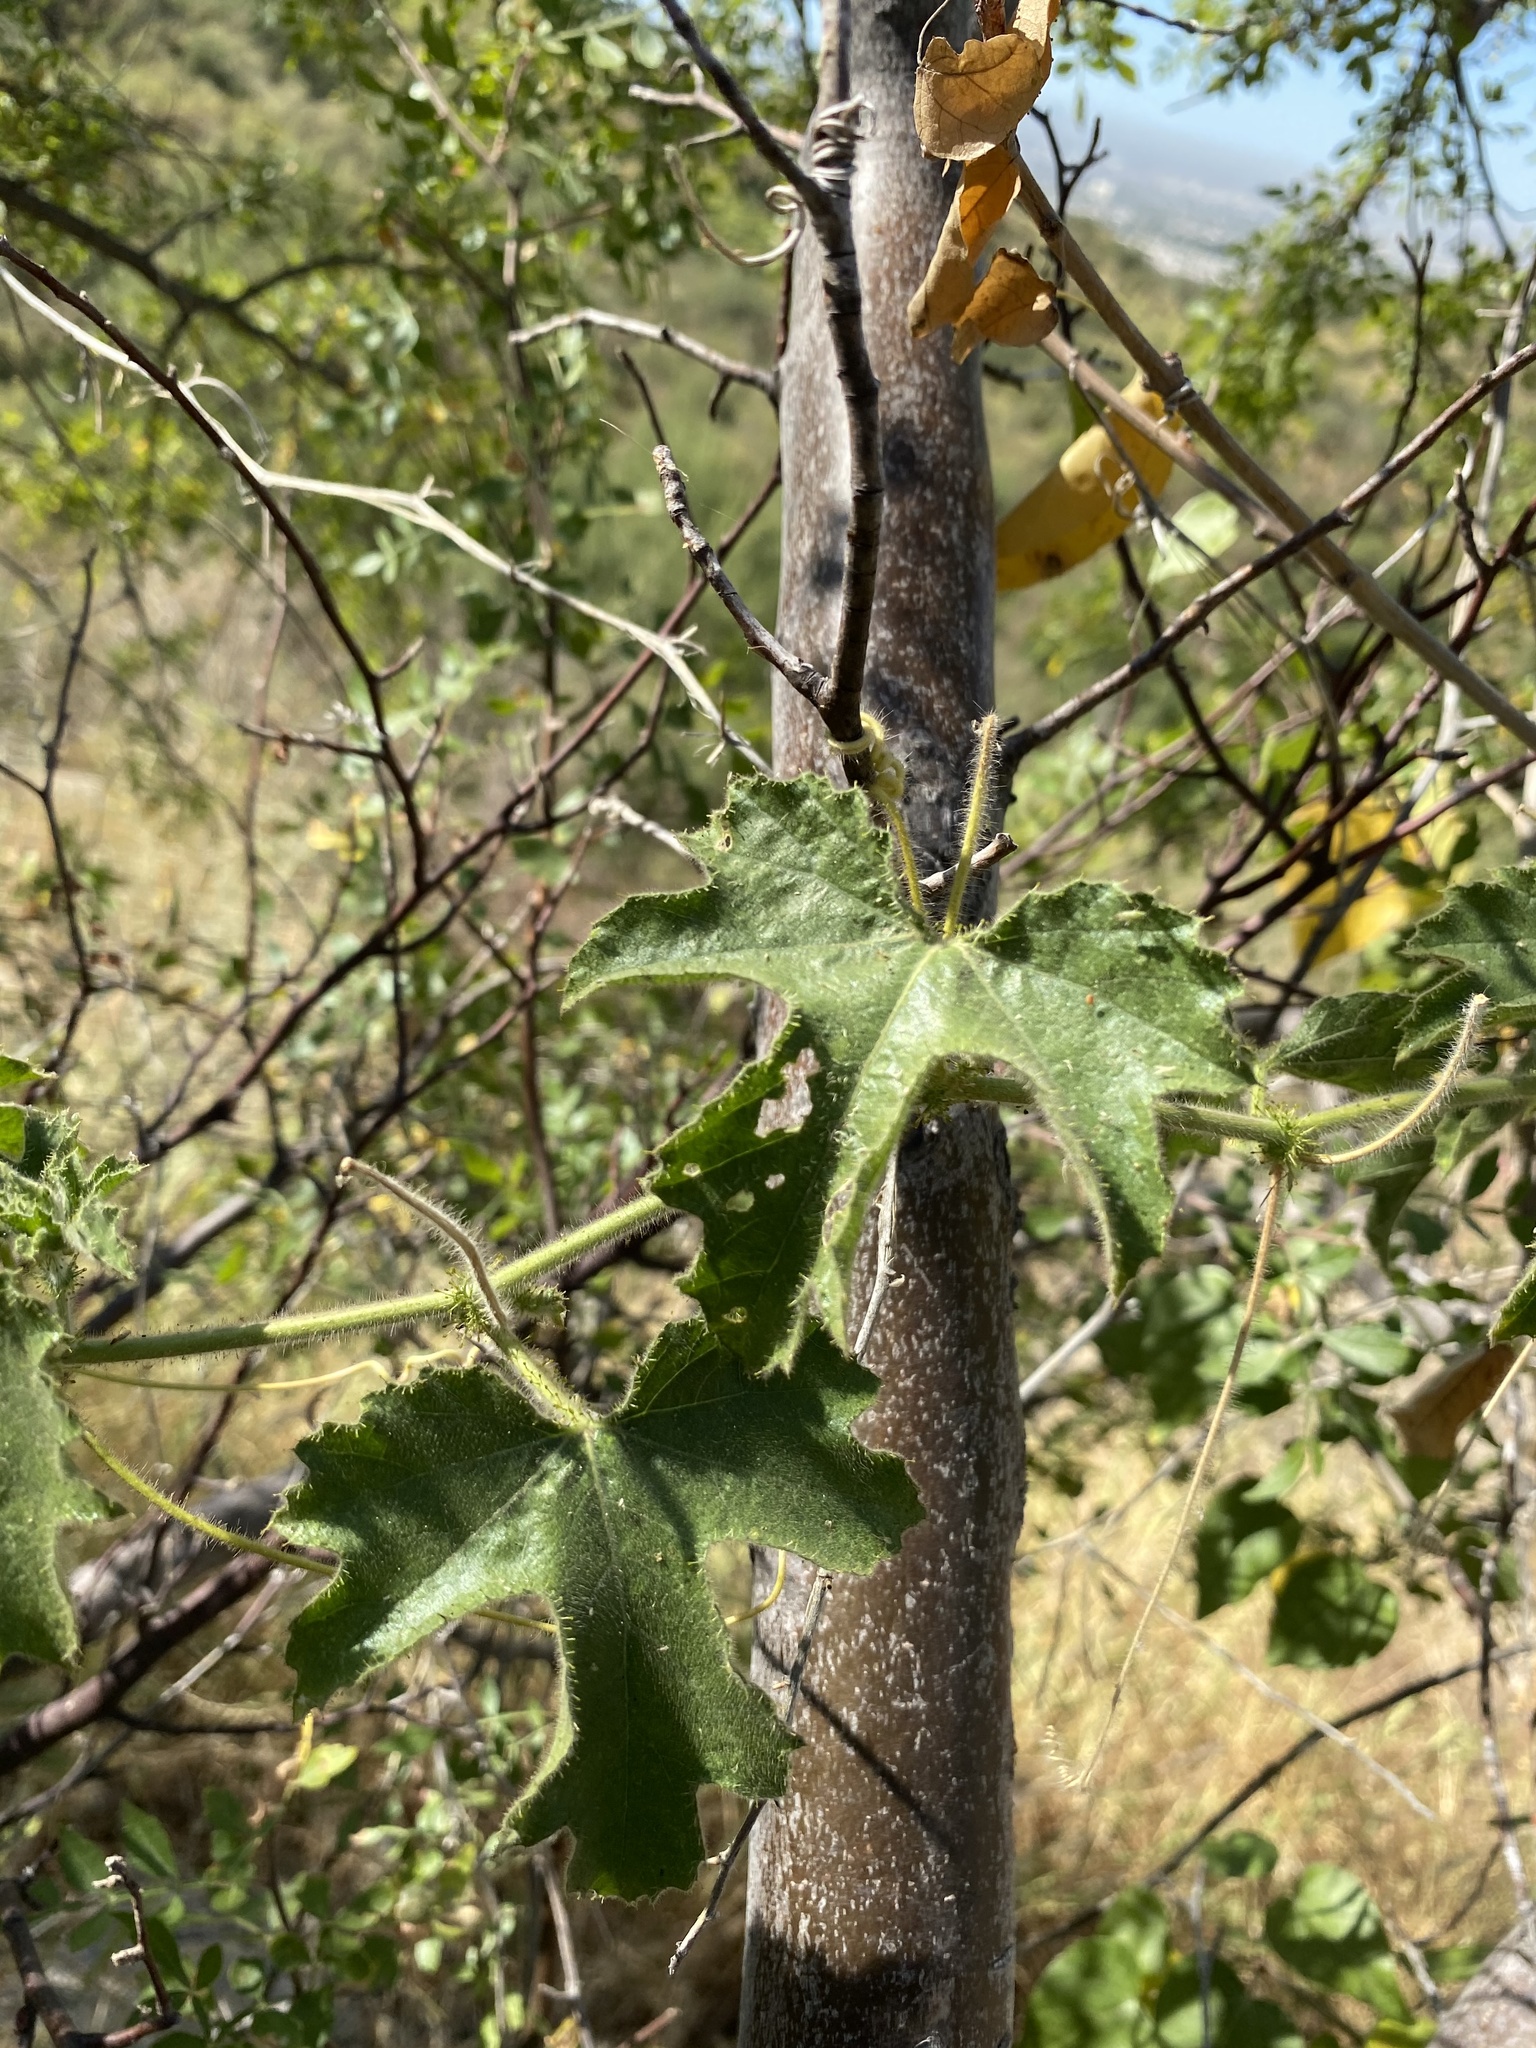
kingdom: Plantae
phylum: Tracheophyta
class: Magnoliopsida
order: Malpighiales
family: Passifloraceae
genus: Passiflora
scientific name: Passiflora arizonica
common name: Arizona passionflower
